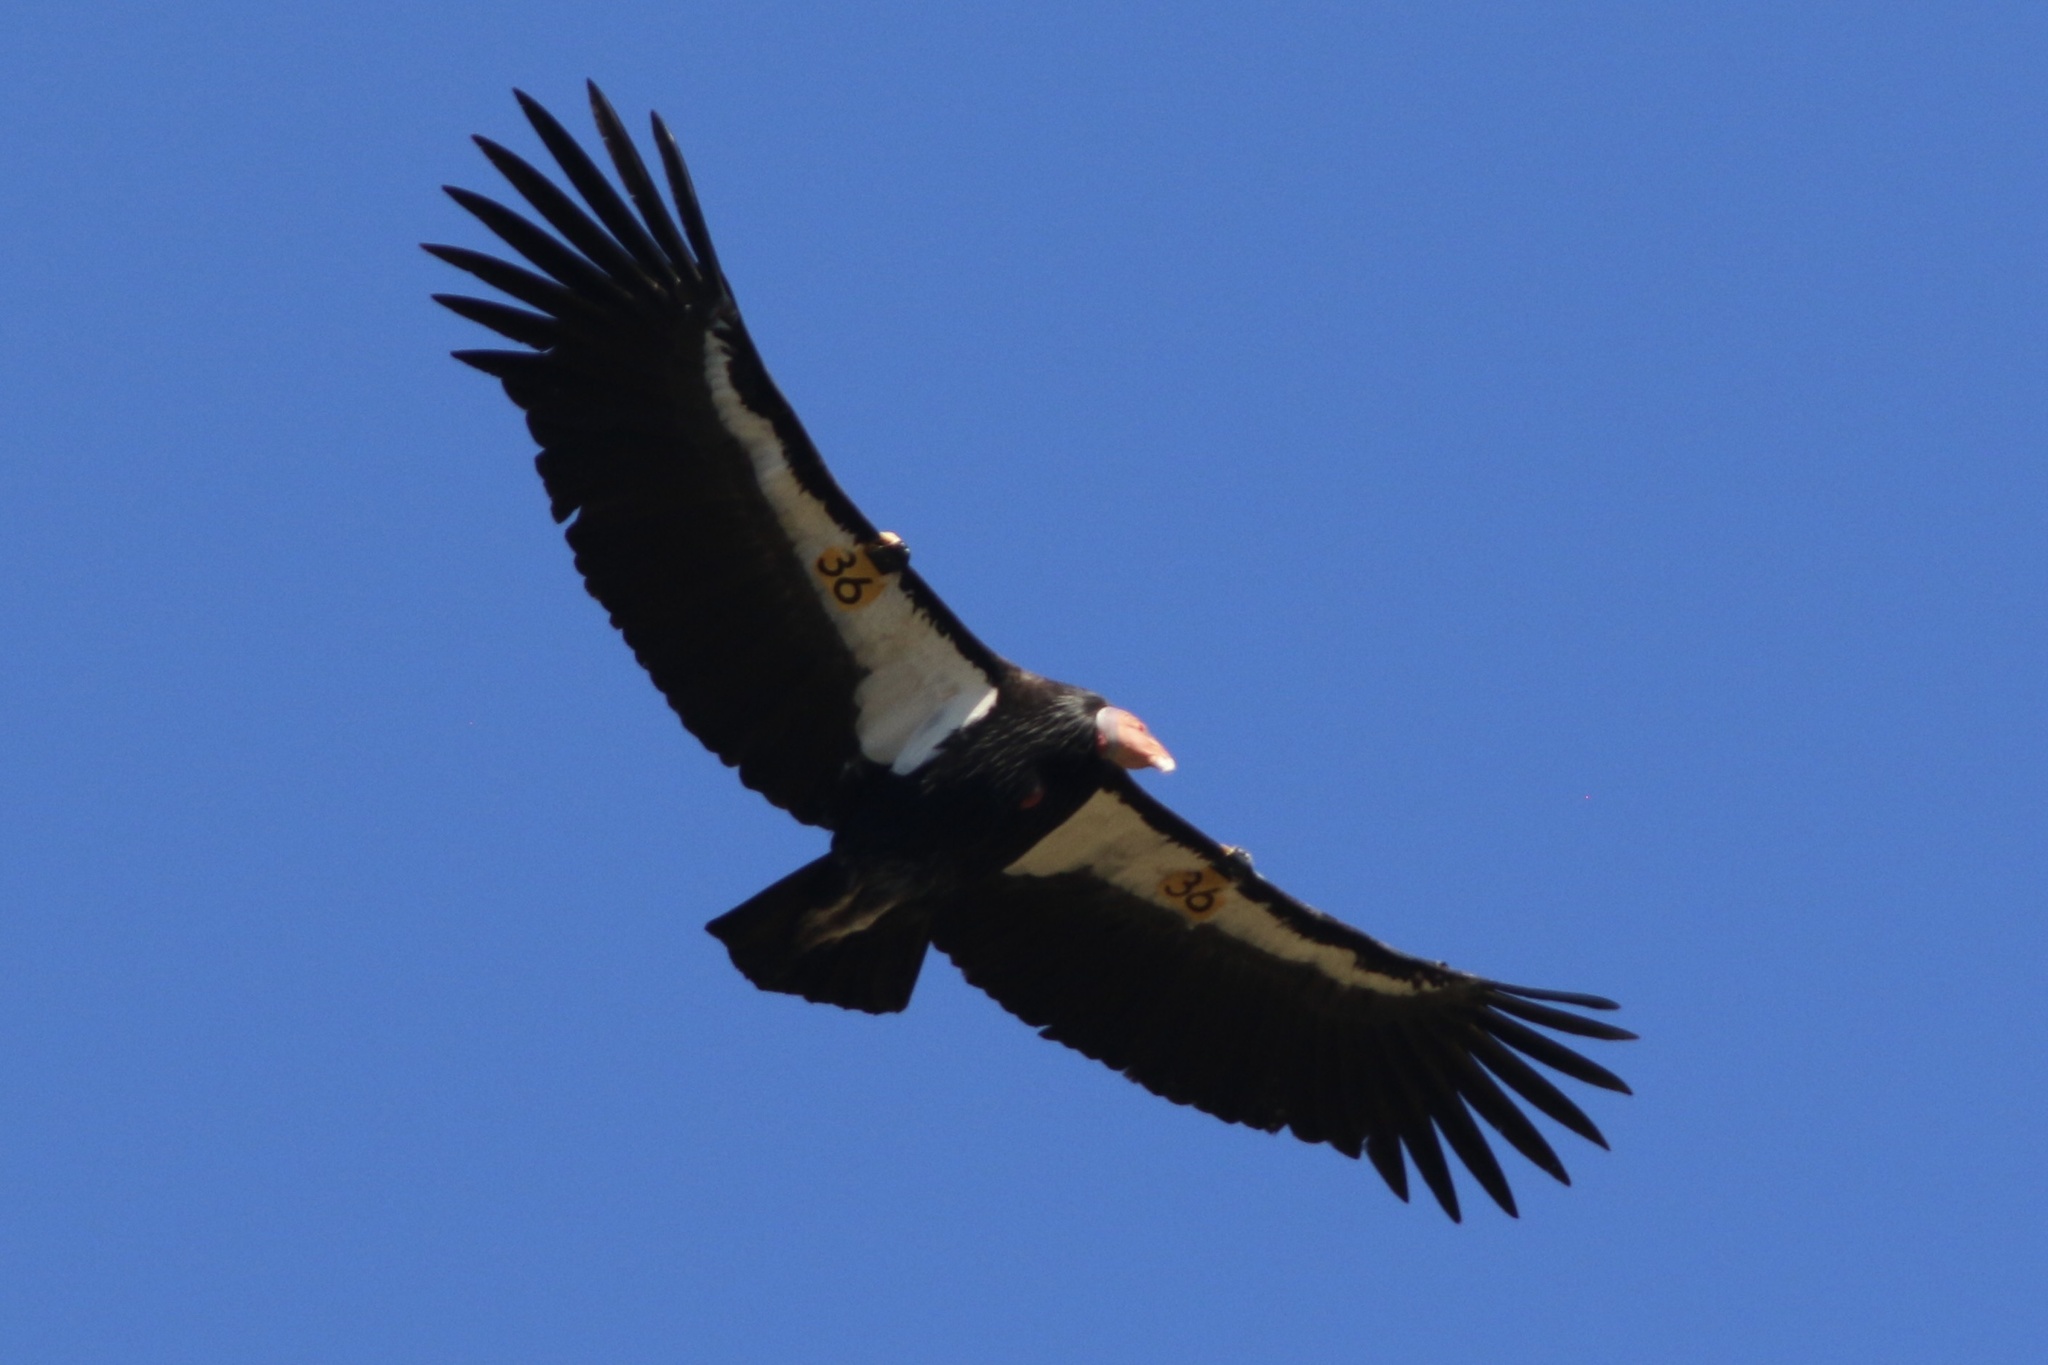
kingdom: Animalia
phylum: Chordata
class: Aves
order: Accipitriformes
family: Cathartidae
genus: Gymnogyps
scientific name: Gymnogyps californianus
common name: California condor
